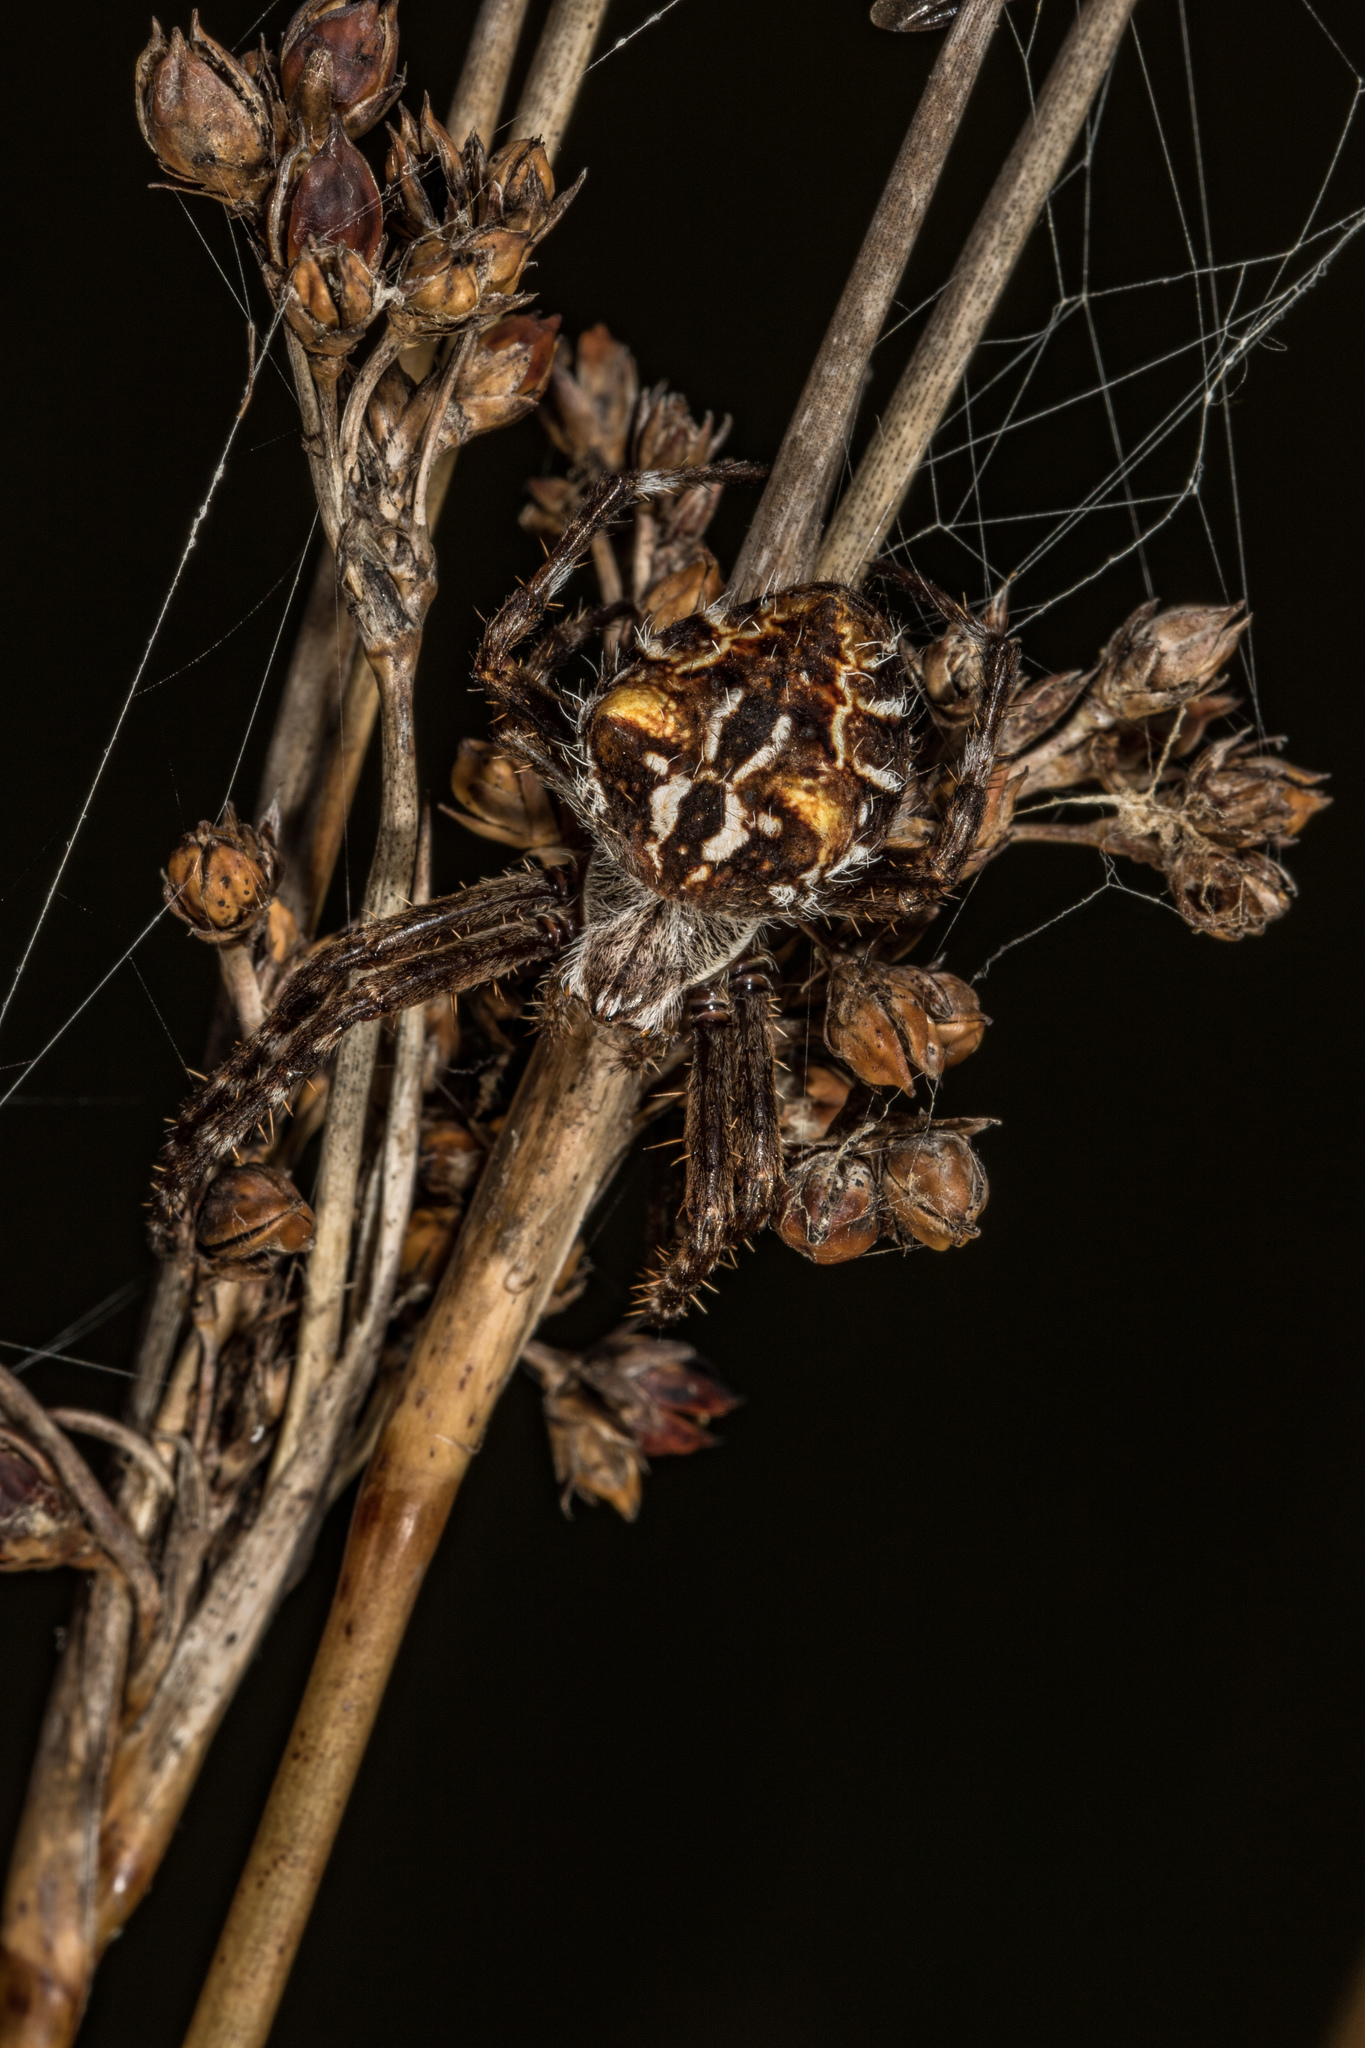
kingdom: Animalia
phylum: Arthropoda
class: Arachnida
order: Araneae
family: Araneidae
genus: Backobourkia
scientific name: Backobourkia brouni
